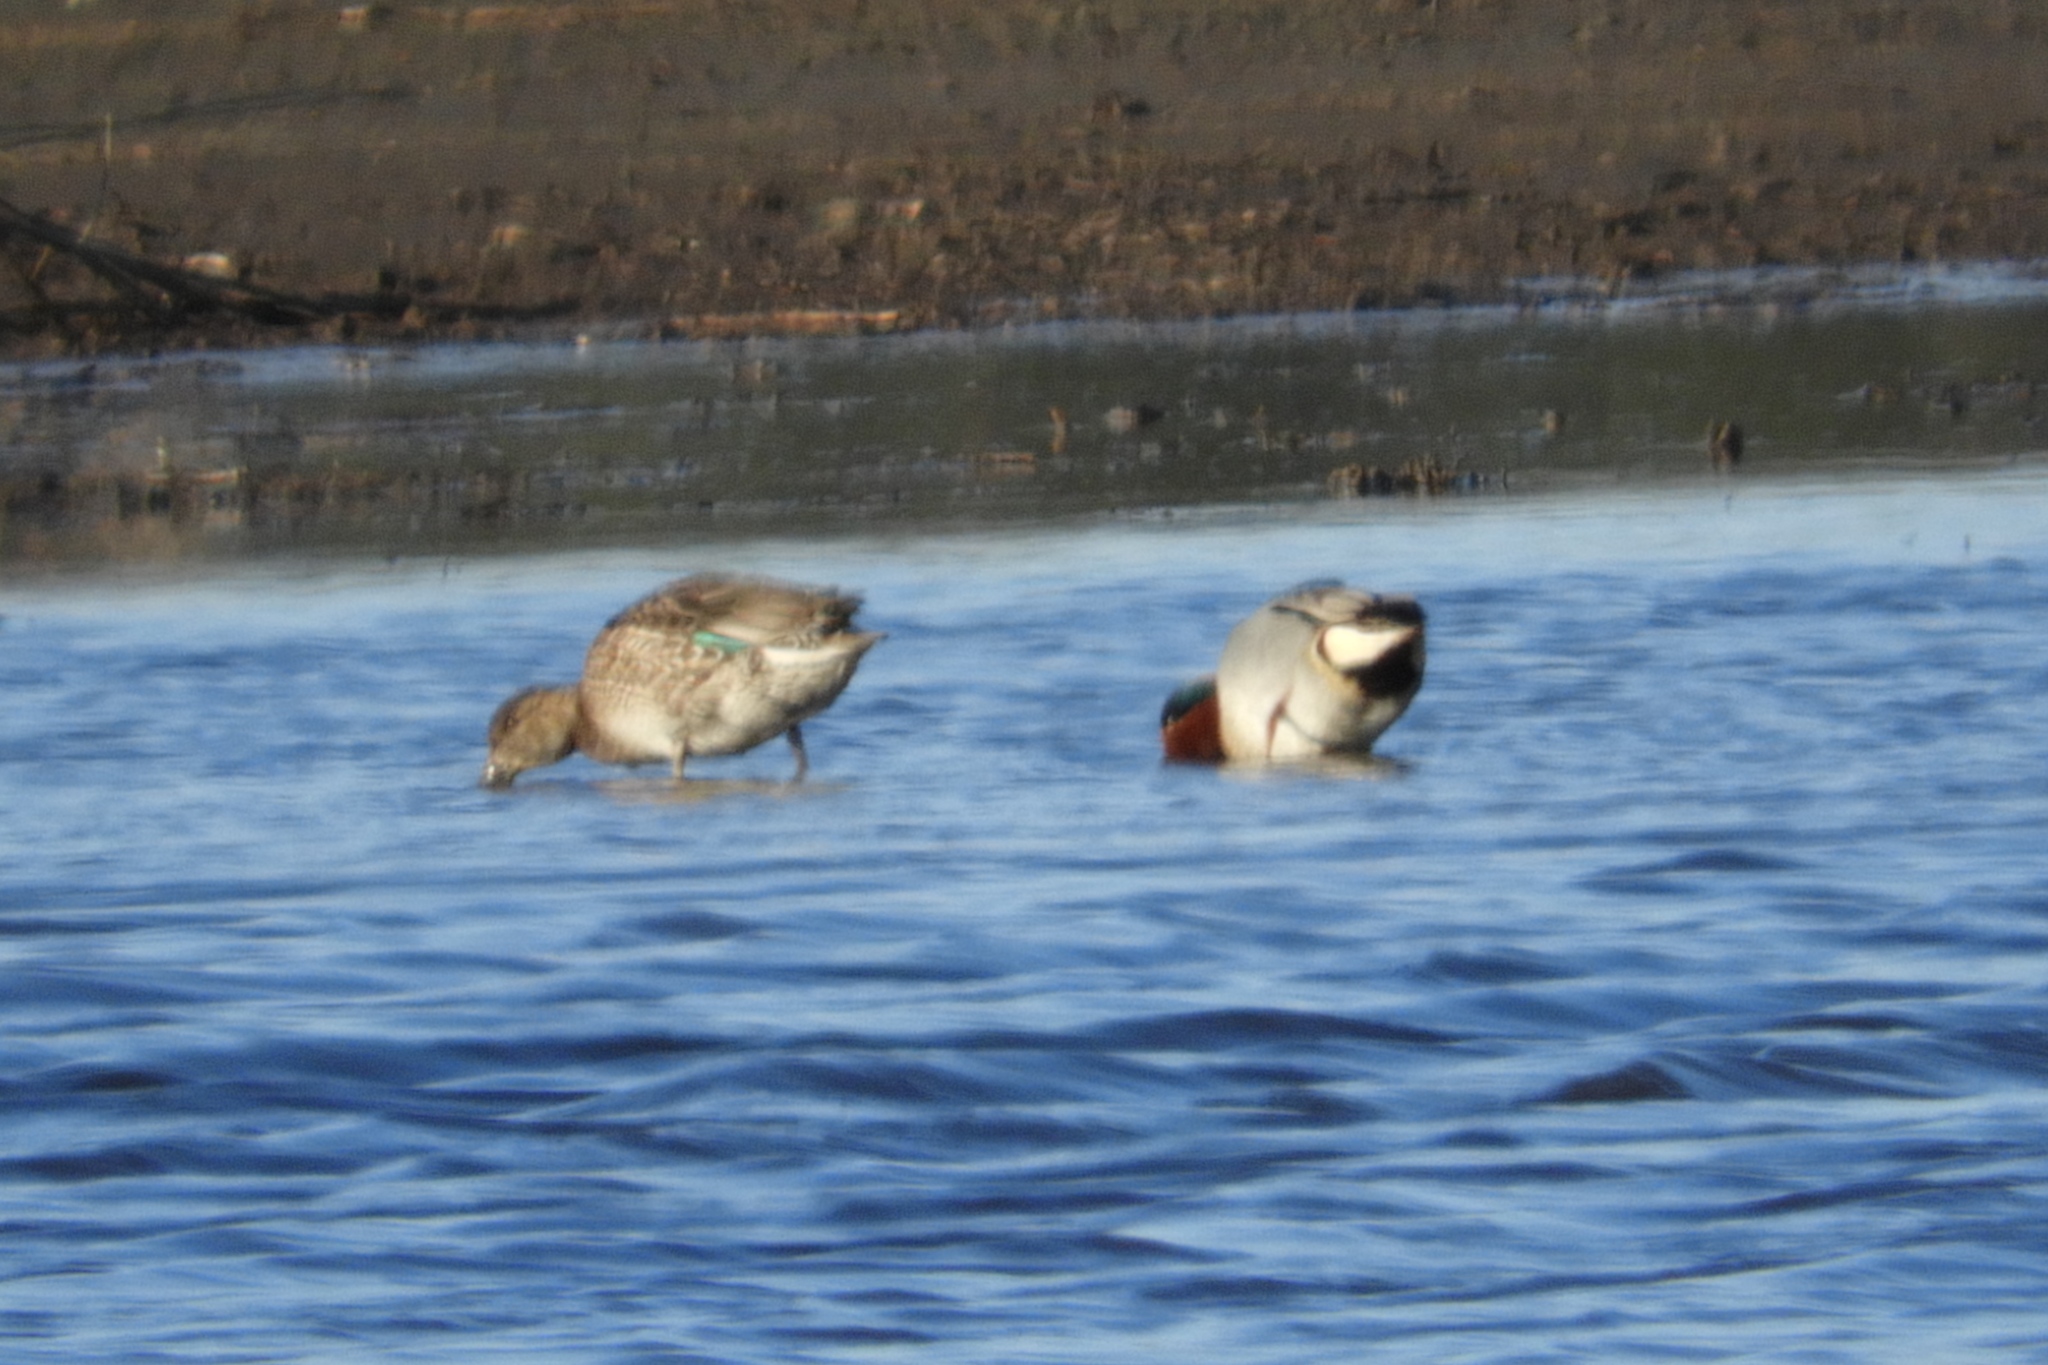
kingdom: Animalia
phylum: Chordata
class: Aves
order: Anseriformes
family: Anatidae
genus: Anas
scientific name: Anas crecca
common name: Eurasian teal
